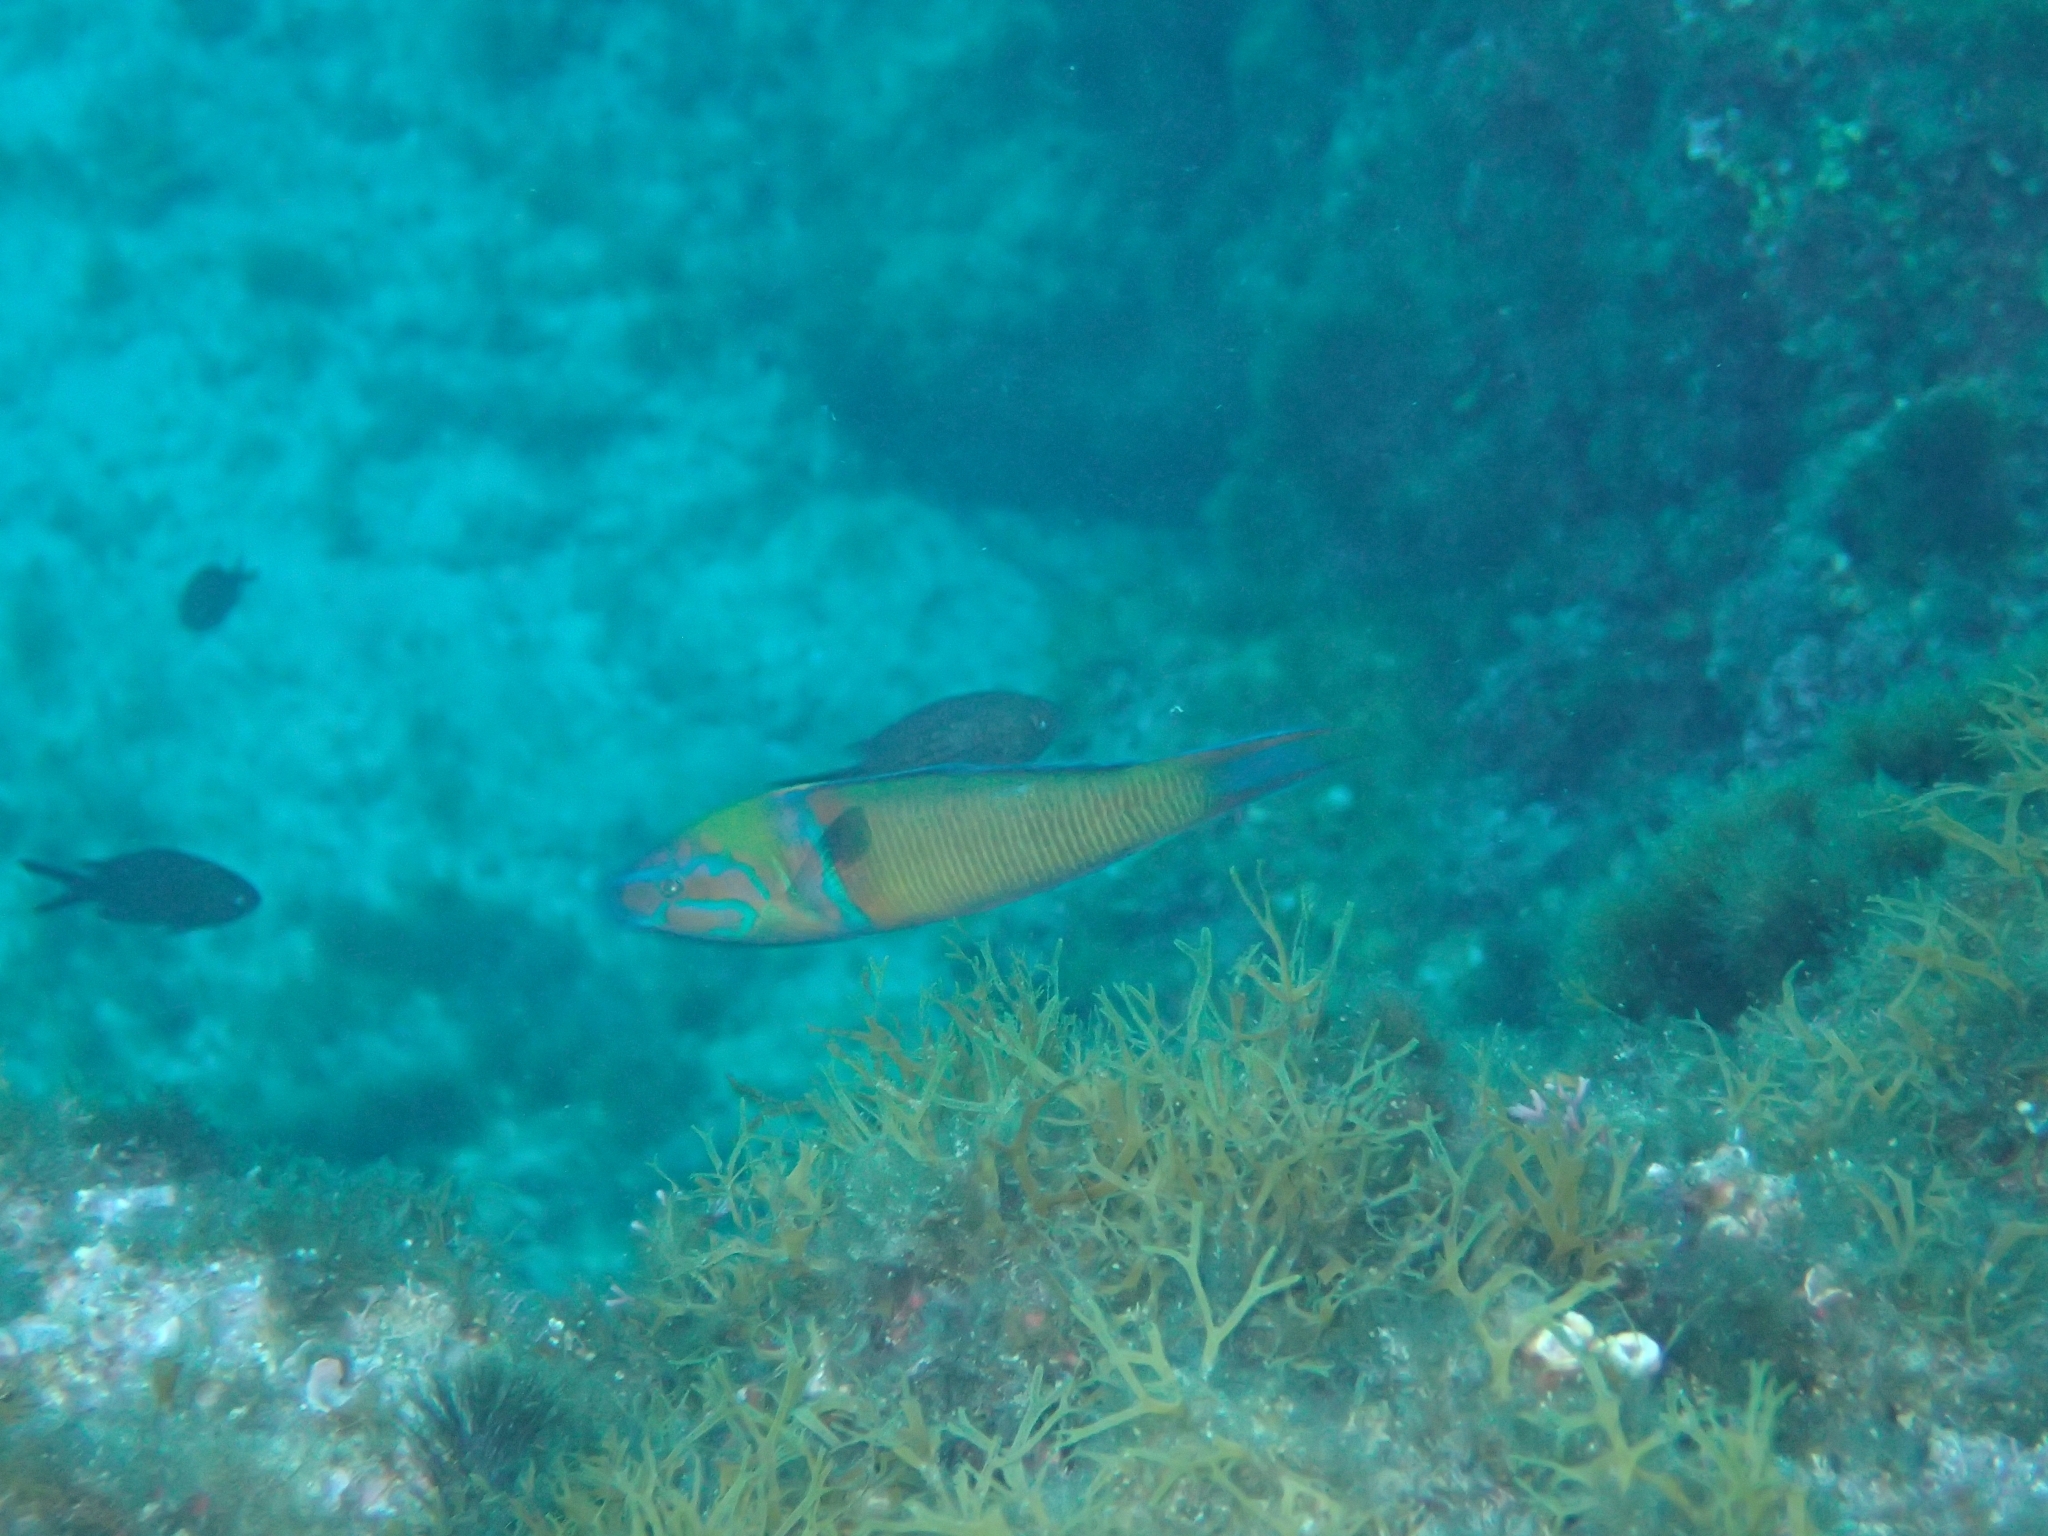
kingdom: Animalia
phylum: Chordata
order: Perciformes
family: Labridae
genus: Thalassoma
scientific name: Thalassoma pavo
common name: Ornate wrasse
